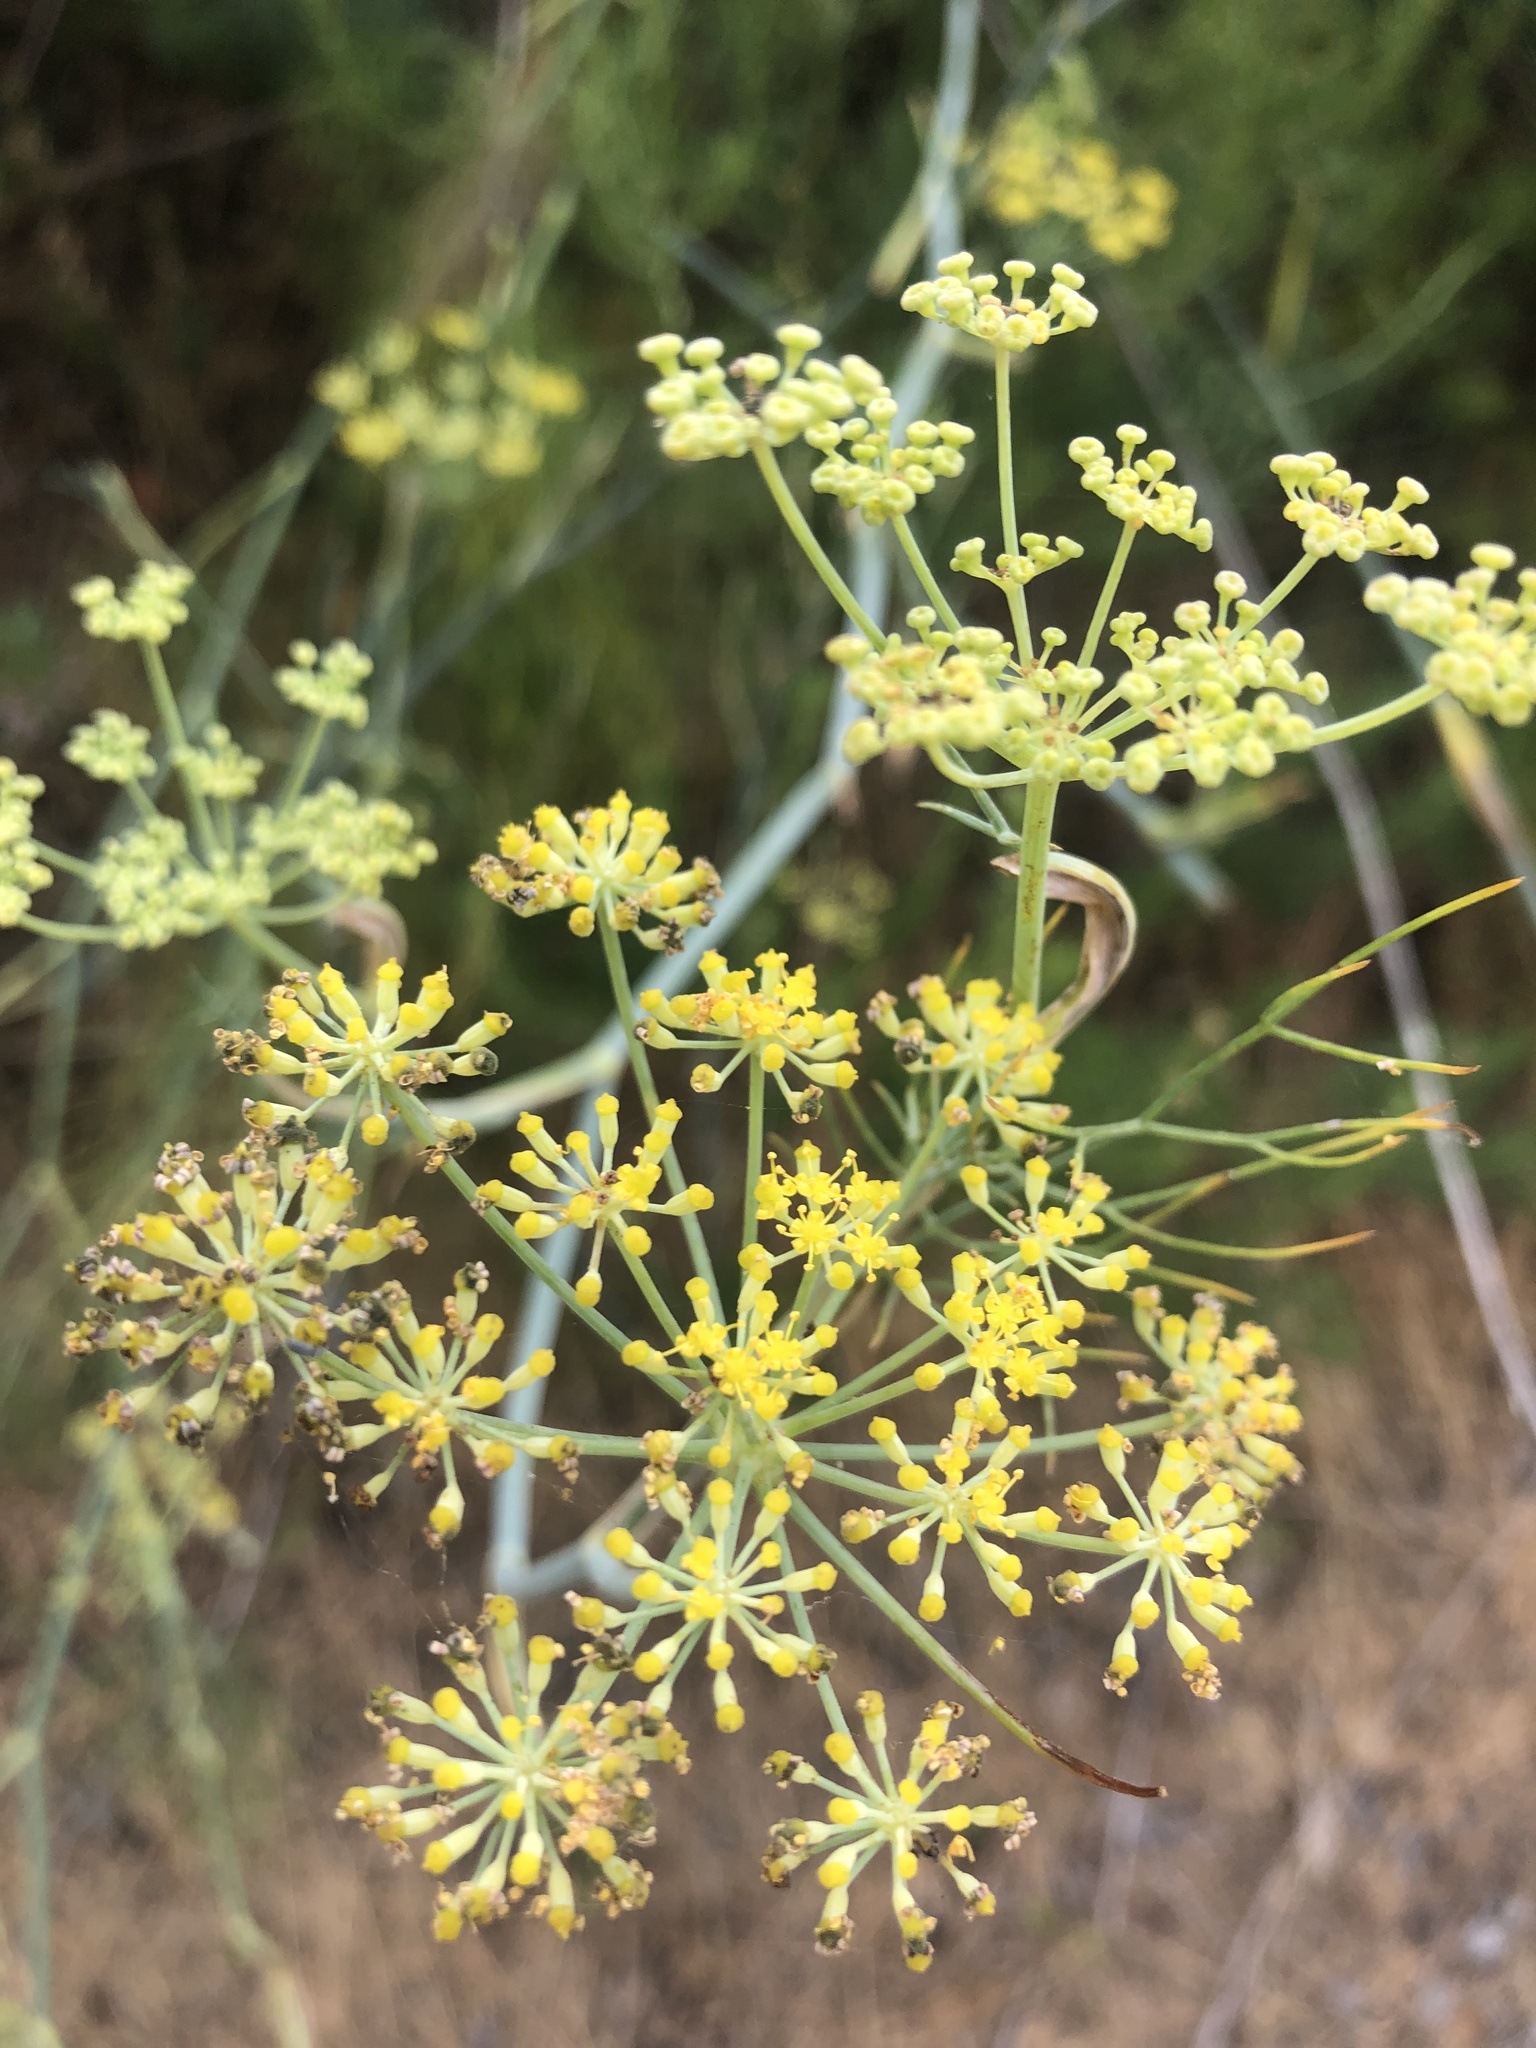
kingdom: Plantae
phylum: Tracheophyta
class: Magnoliopsida
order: Apiales
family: Apiaceae
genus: Foeniculum
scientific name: Foeniculum vulgare
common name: Fennel
